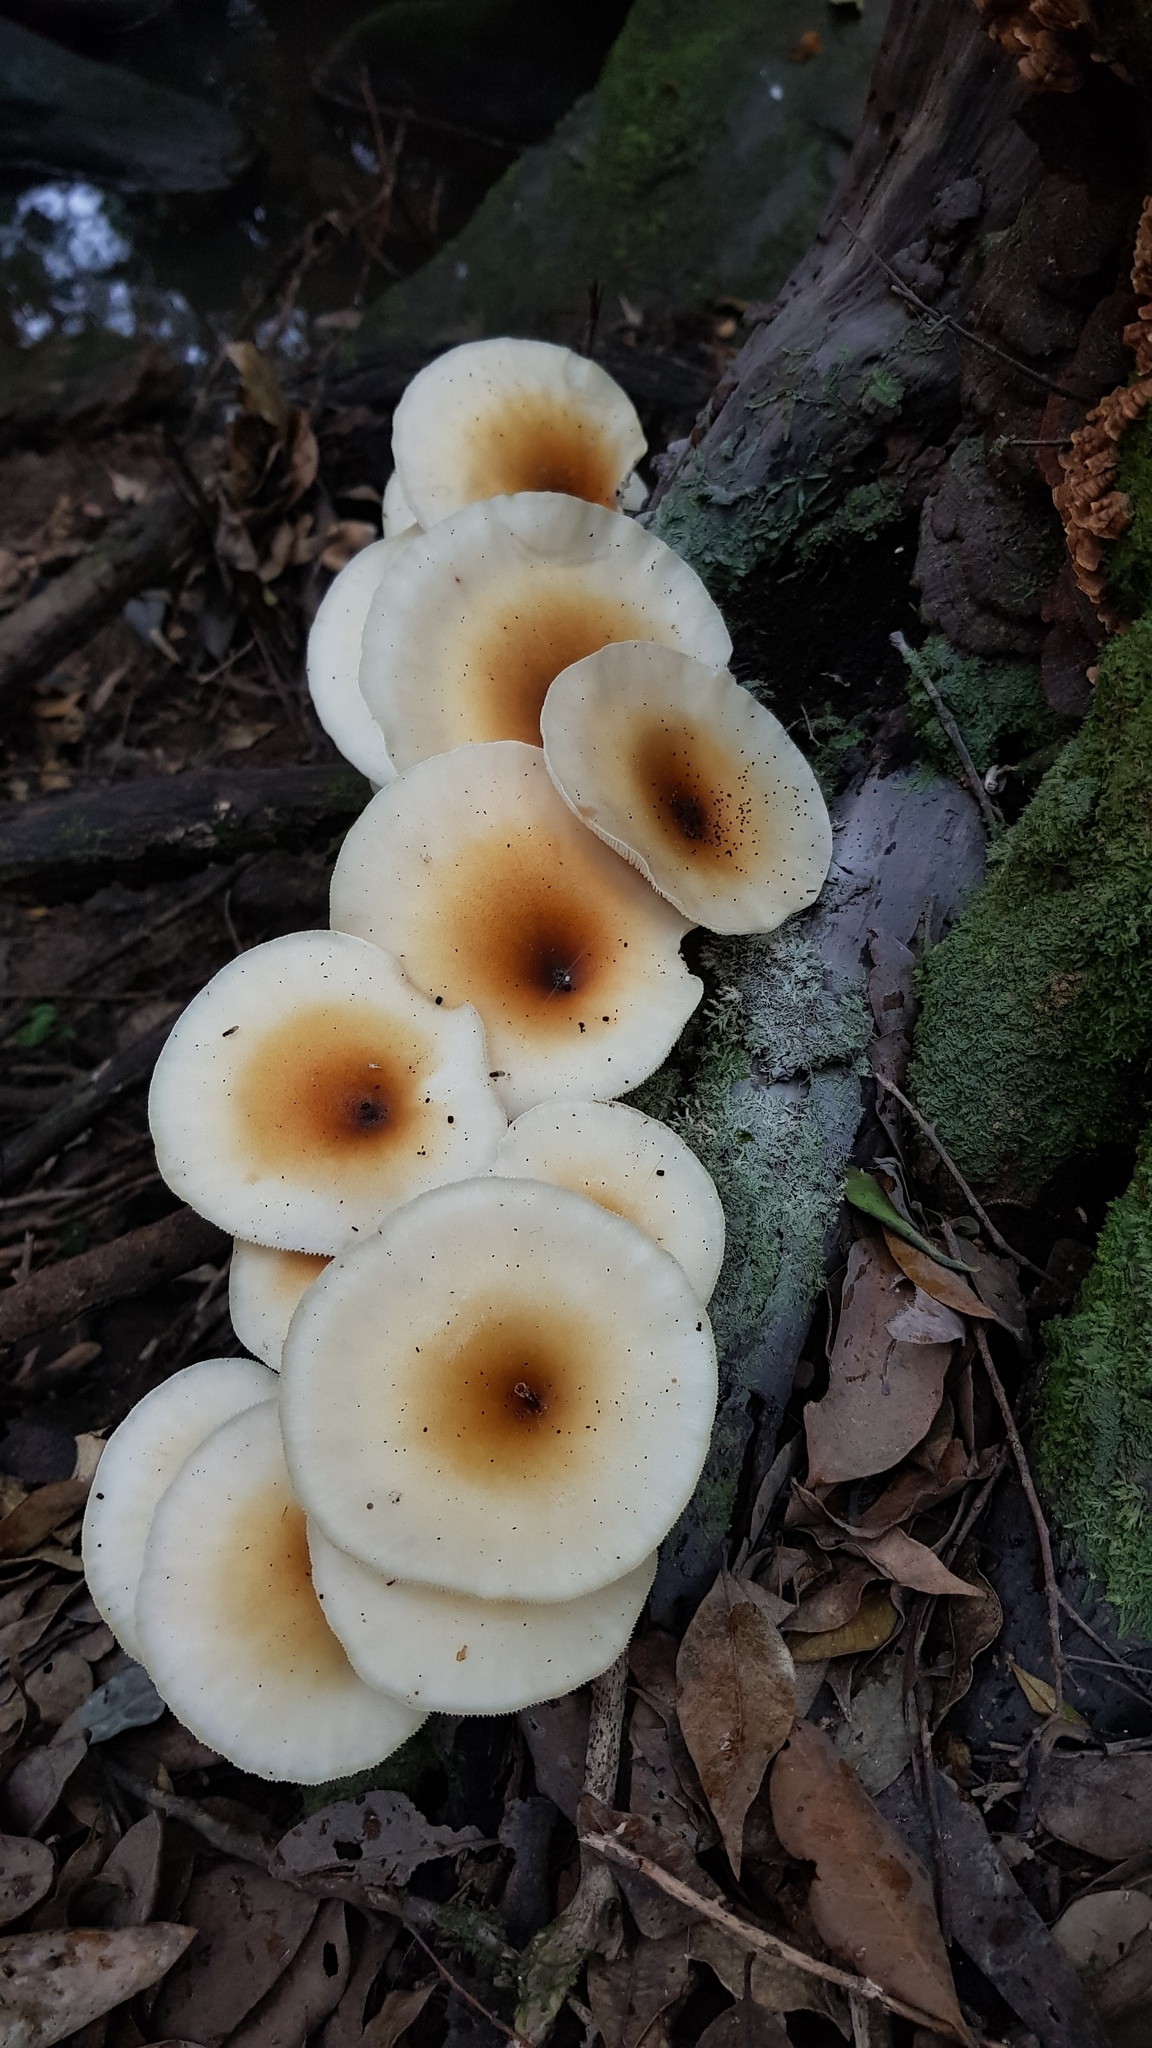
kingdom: Fungi
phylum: Basidiomycota
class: Agaricomycetes
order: Agaricales
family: Omphalotaceae
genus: Omphalotus
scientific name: Omphalotus nidiformis
